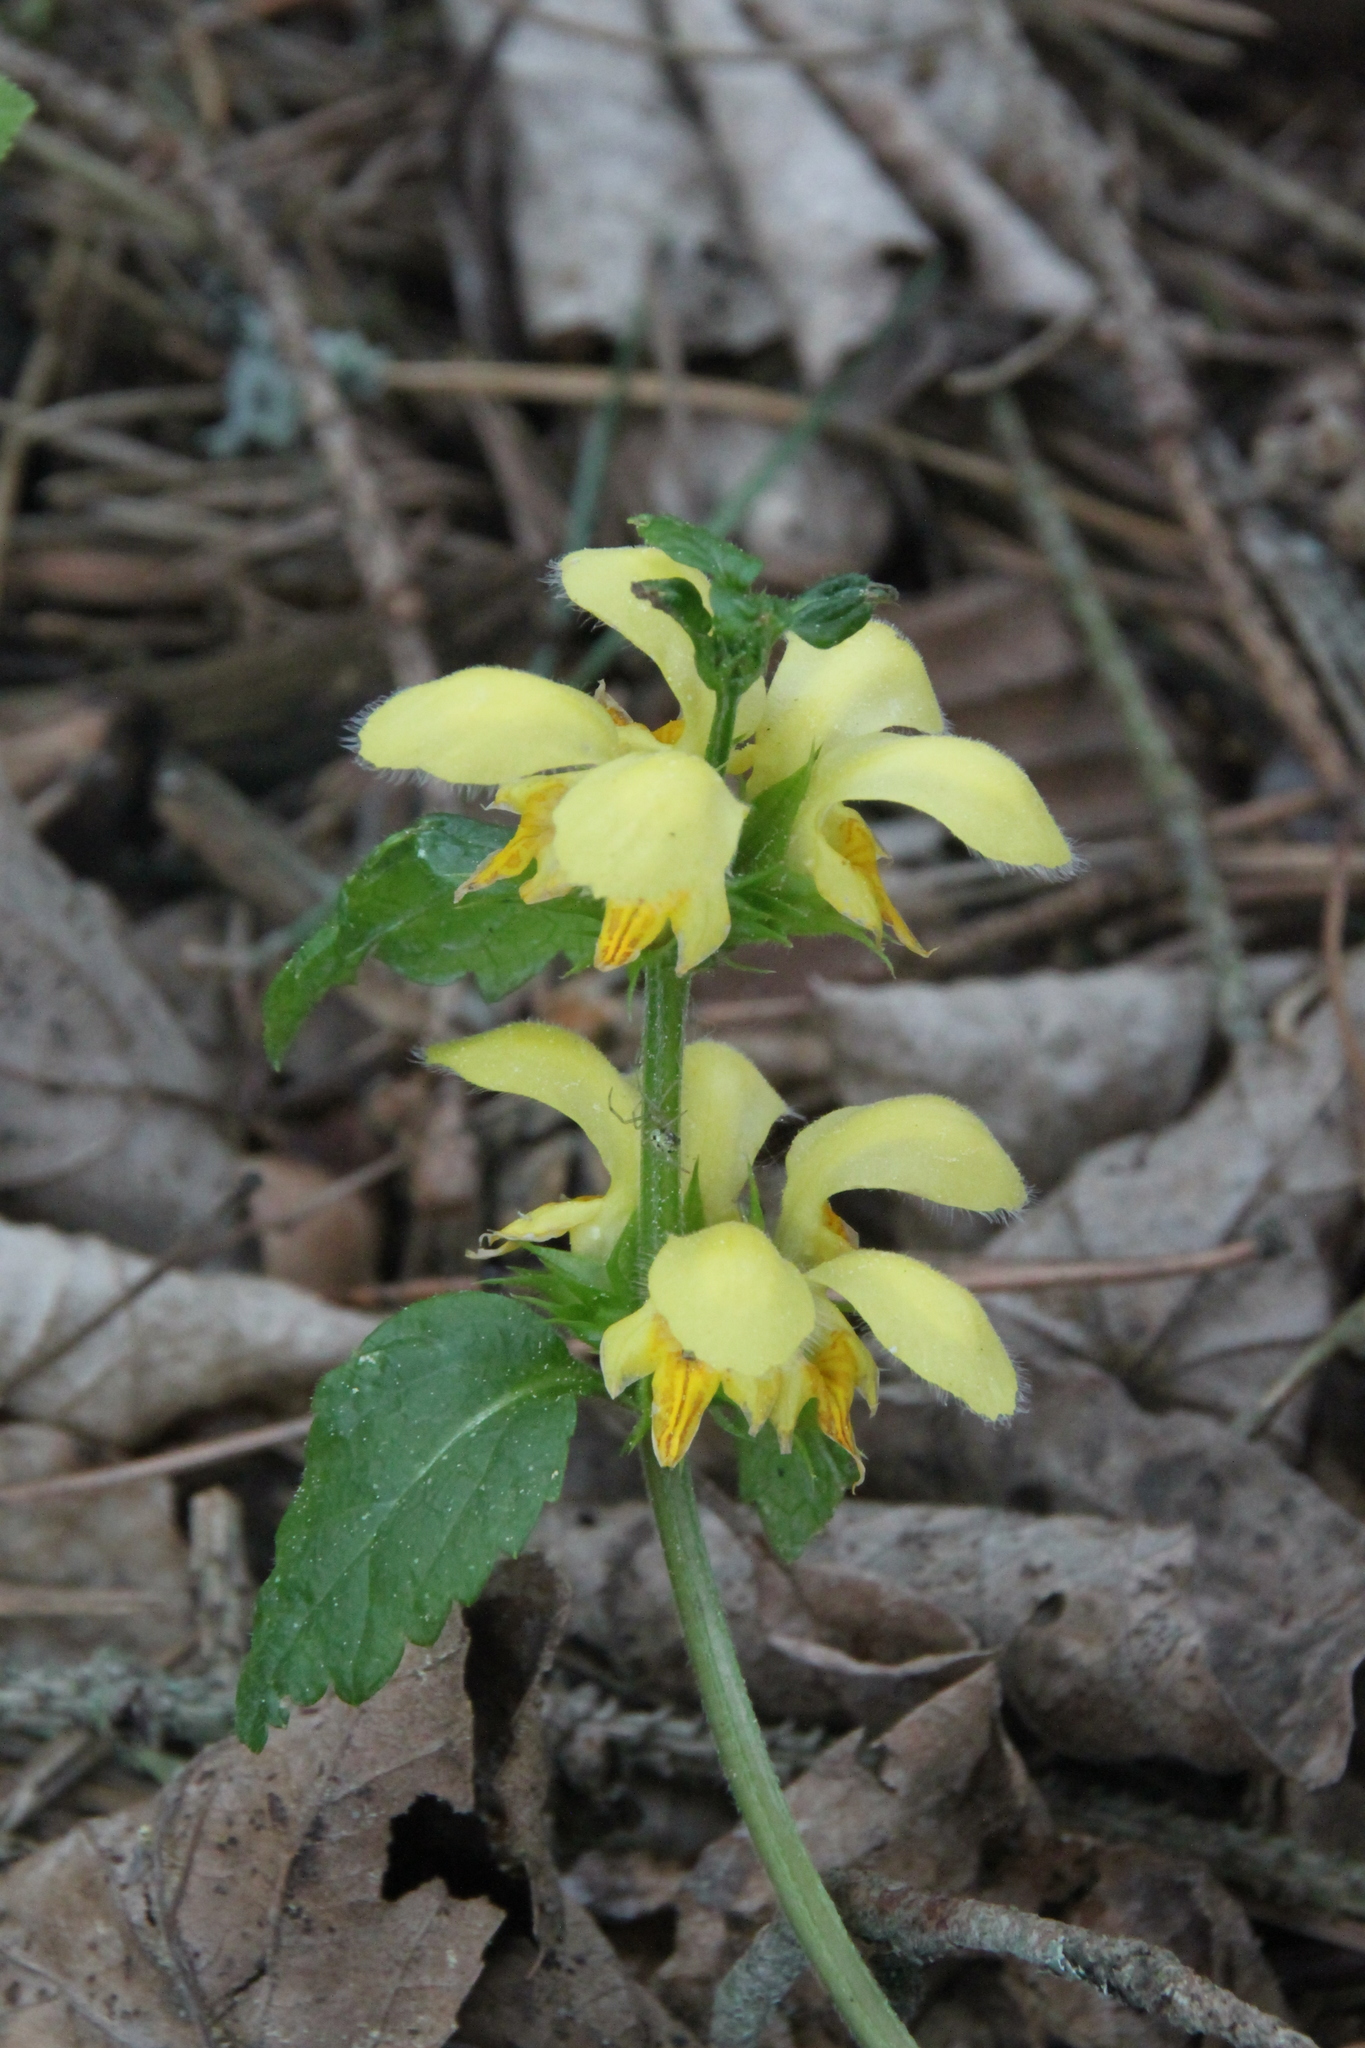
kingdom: Plantae
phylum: Tracheophyta
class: Magnoliopsida
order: Lamiales
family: Lamiaceae
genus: Lamium
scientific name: Lamium galeobdolon
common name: Yellow archangel
